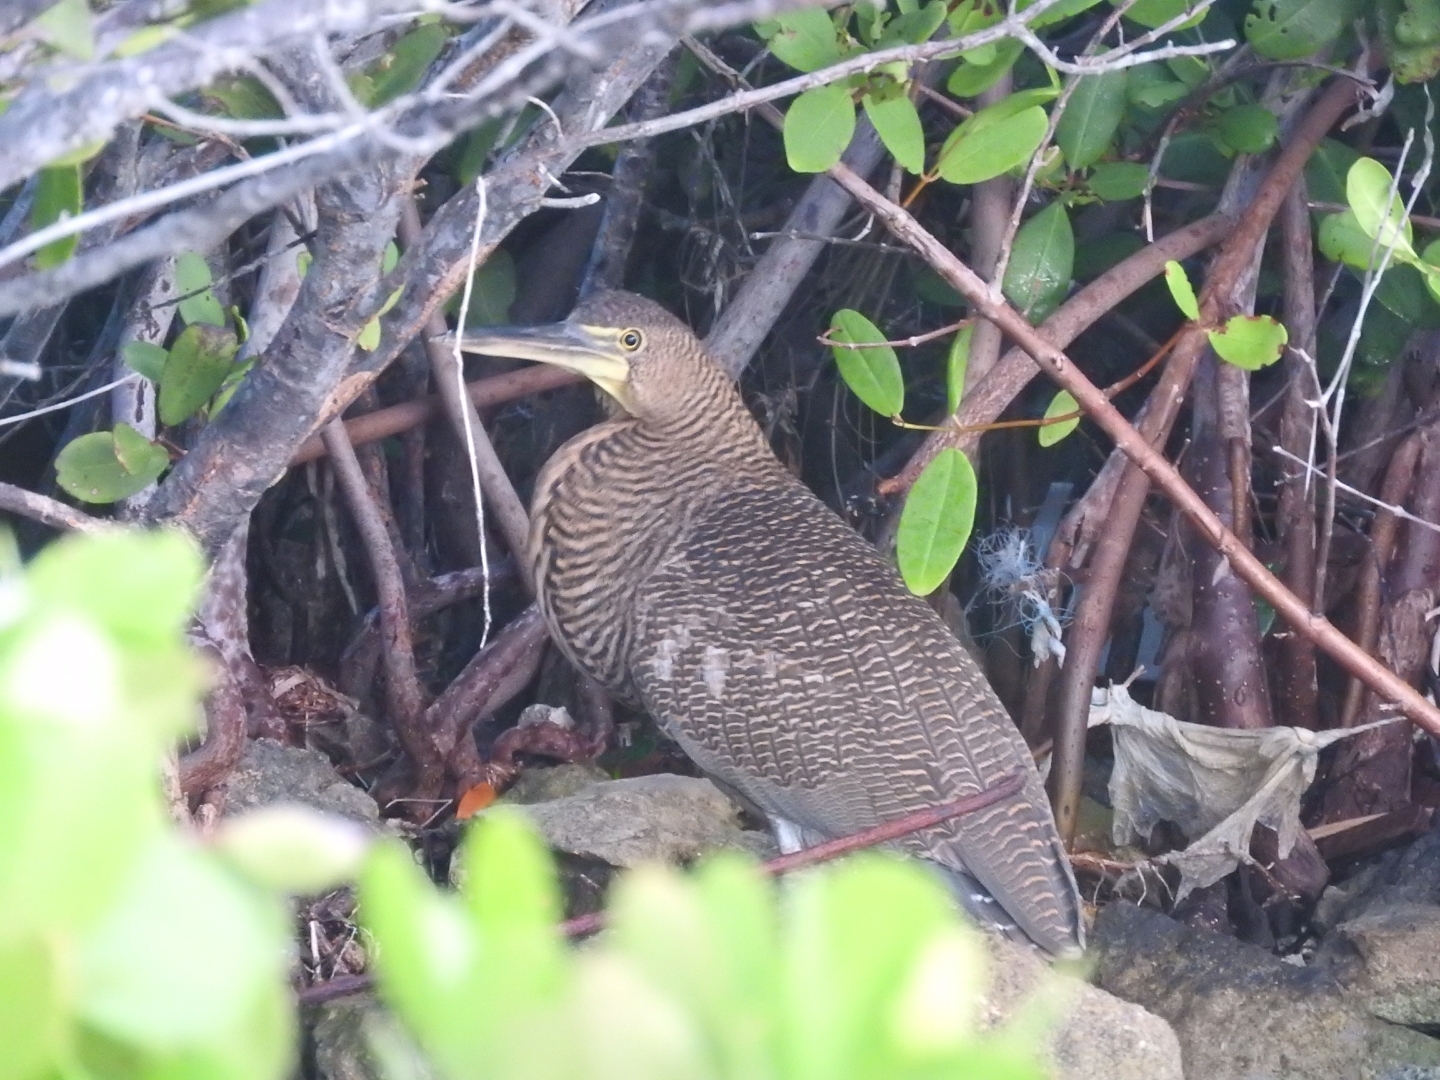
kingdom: Animalia
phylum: Chordata
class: Aves
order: Pelecaniformes
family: Ardeidae
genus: Tigrisoma
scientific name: Tigrisoma mexicanum
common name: Bare-throated tiger-heron
